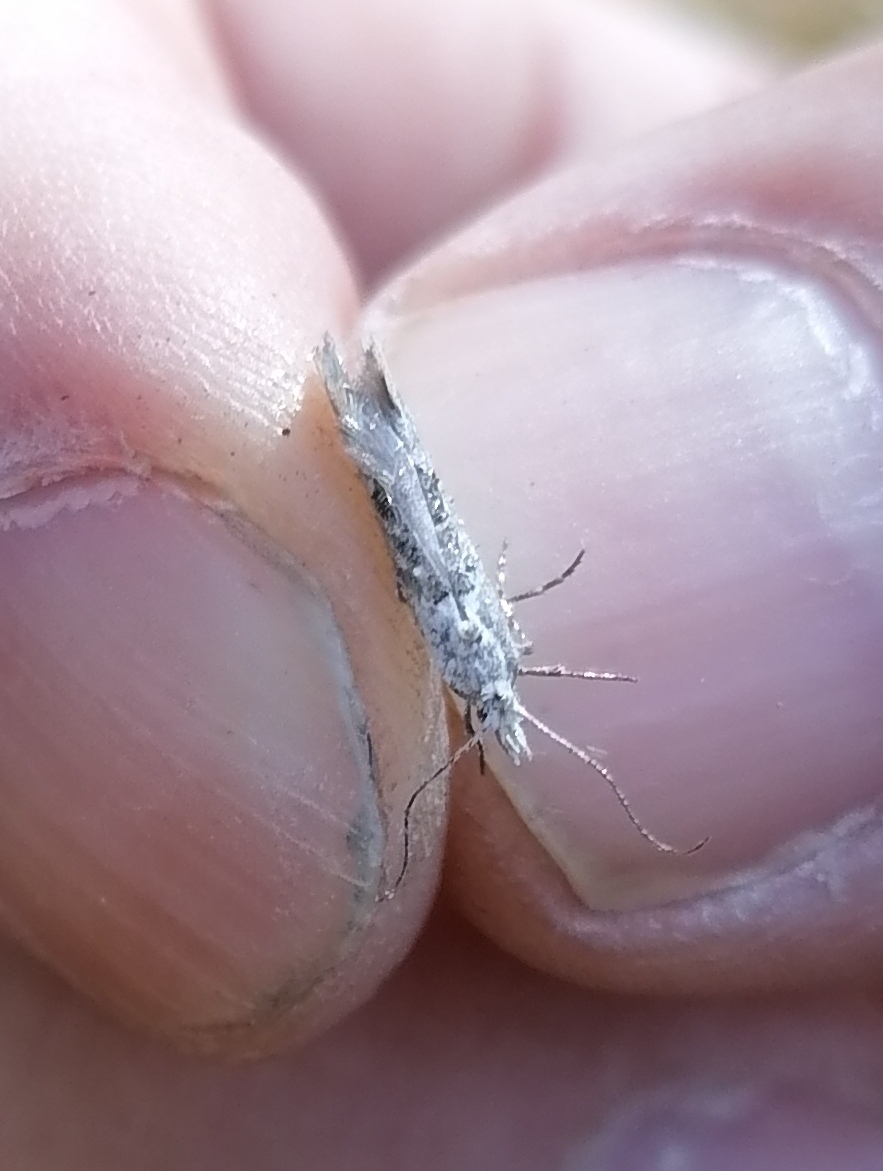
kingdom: Animalia
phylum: Arthropoda
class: Insecta
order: Lepidoptera
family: Plutellidae
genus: Ypsolophus
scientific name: Ypsolophus asperella
